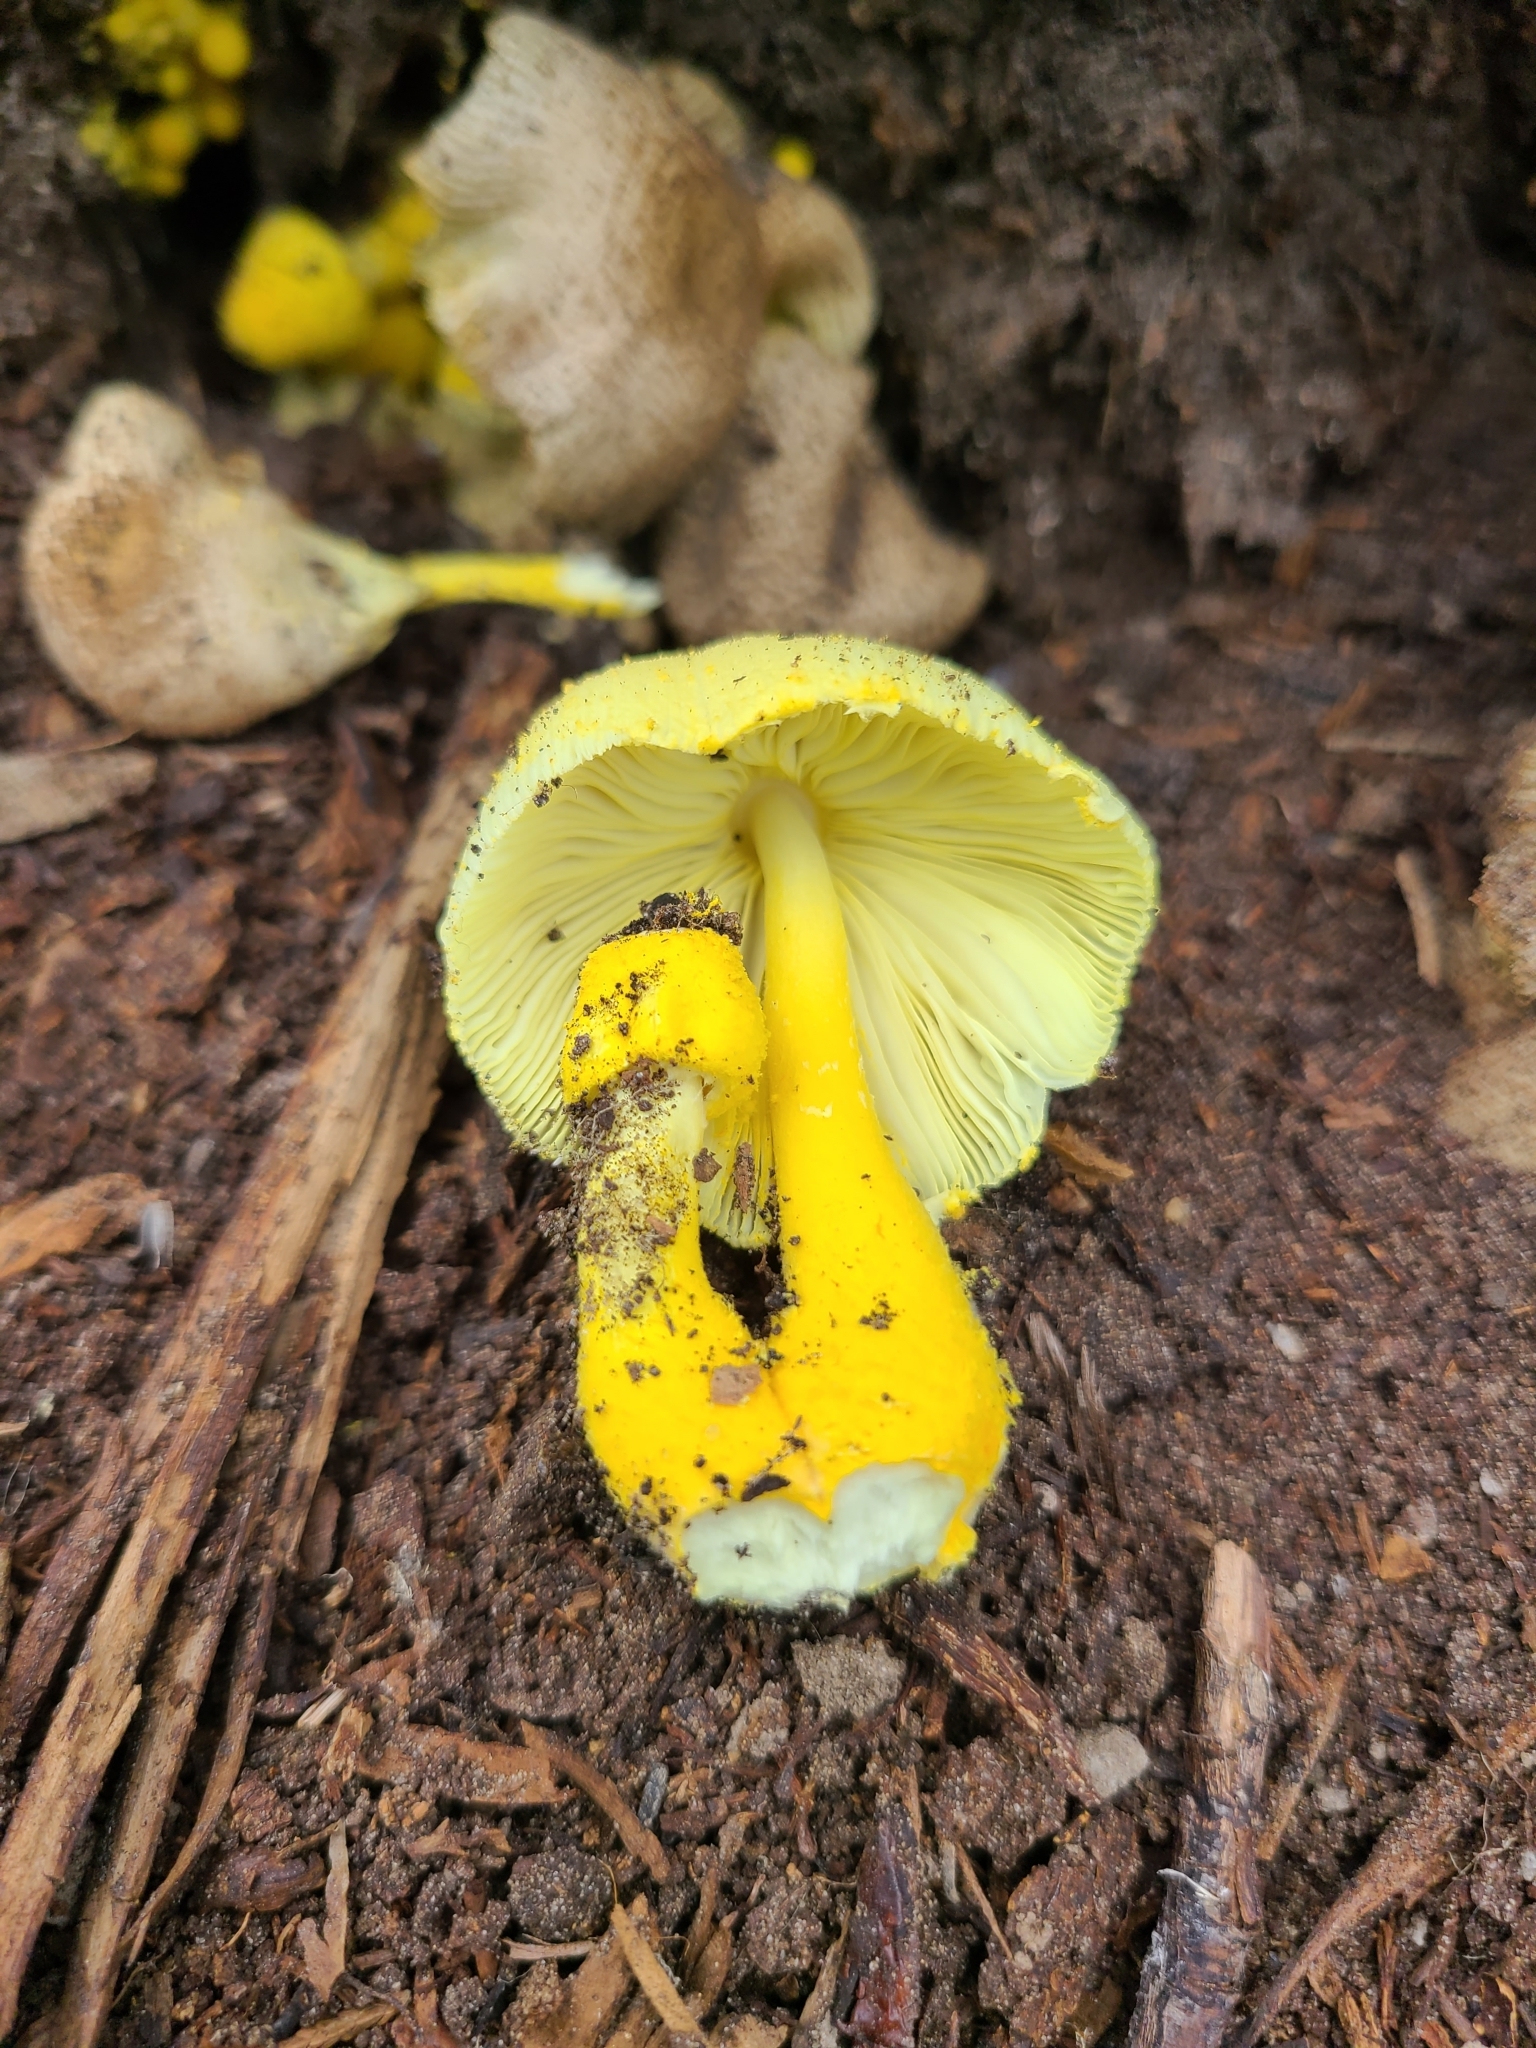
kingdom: Fungi
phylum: Basidiomycota
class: Agaricomycetes
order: Agaricales
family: Agaricaceae
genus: Leucocoprinus
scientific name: Leucocoprinus birnbaumii
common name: Plantpot dapperling
